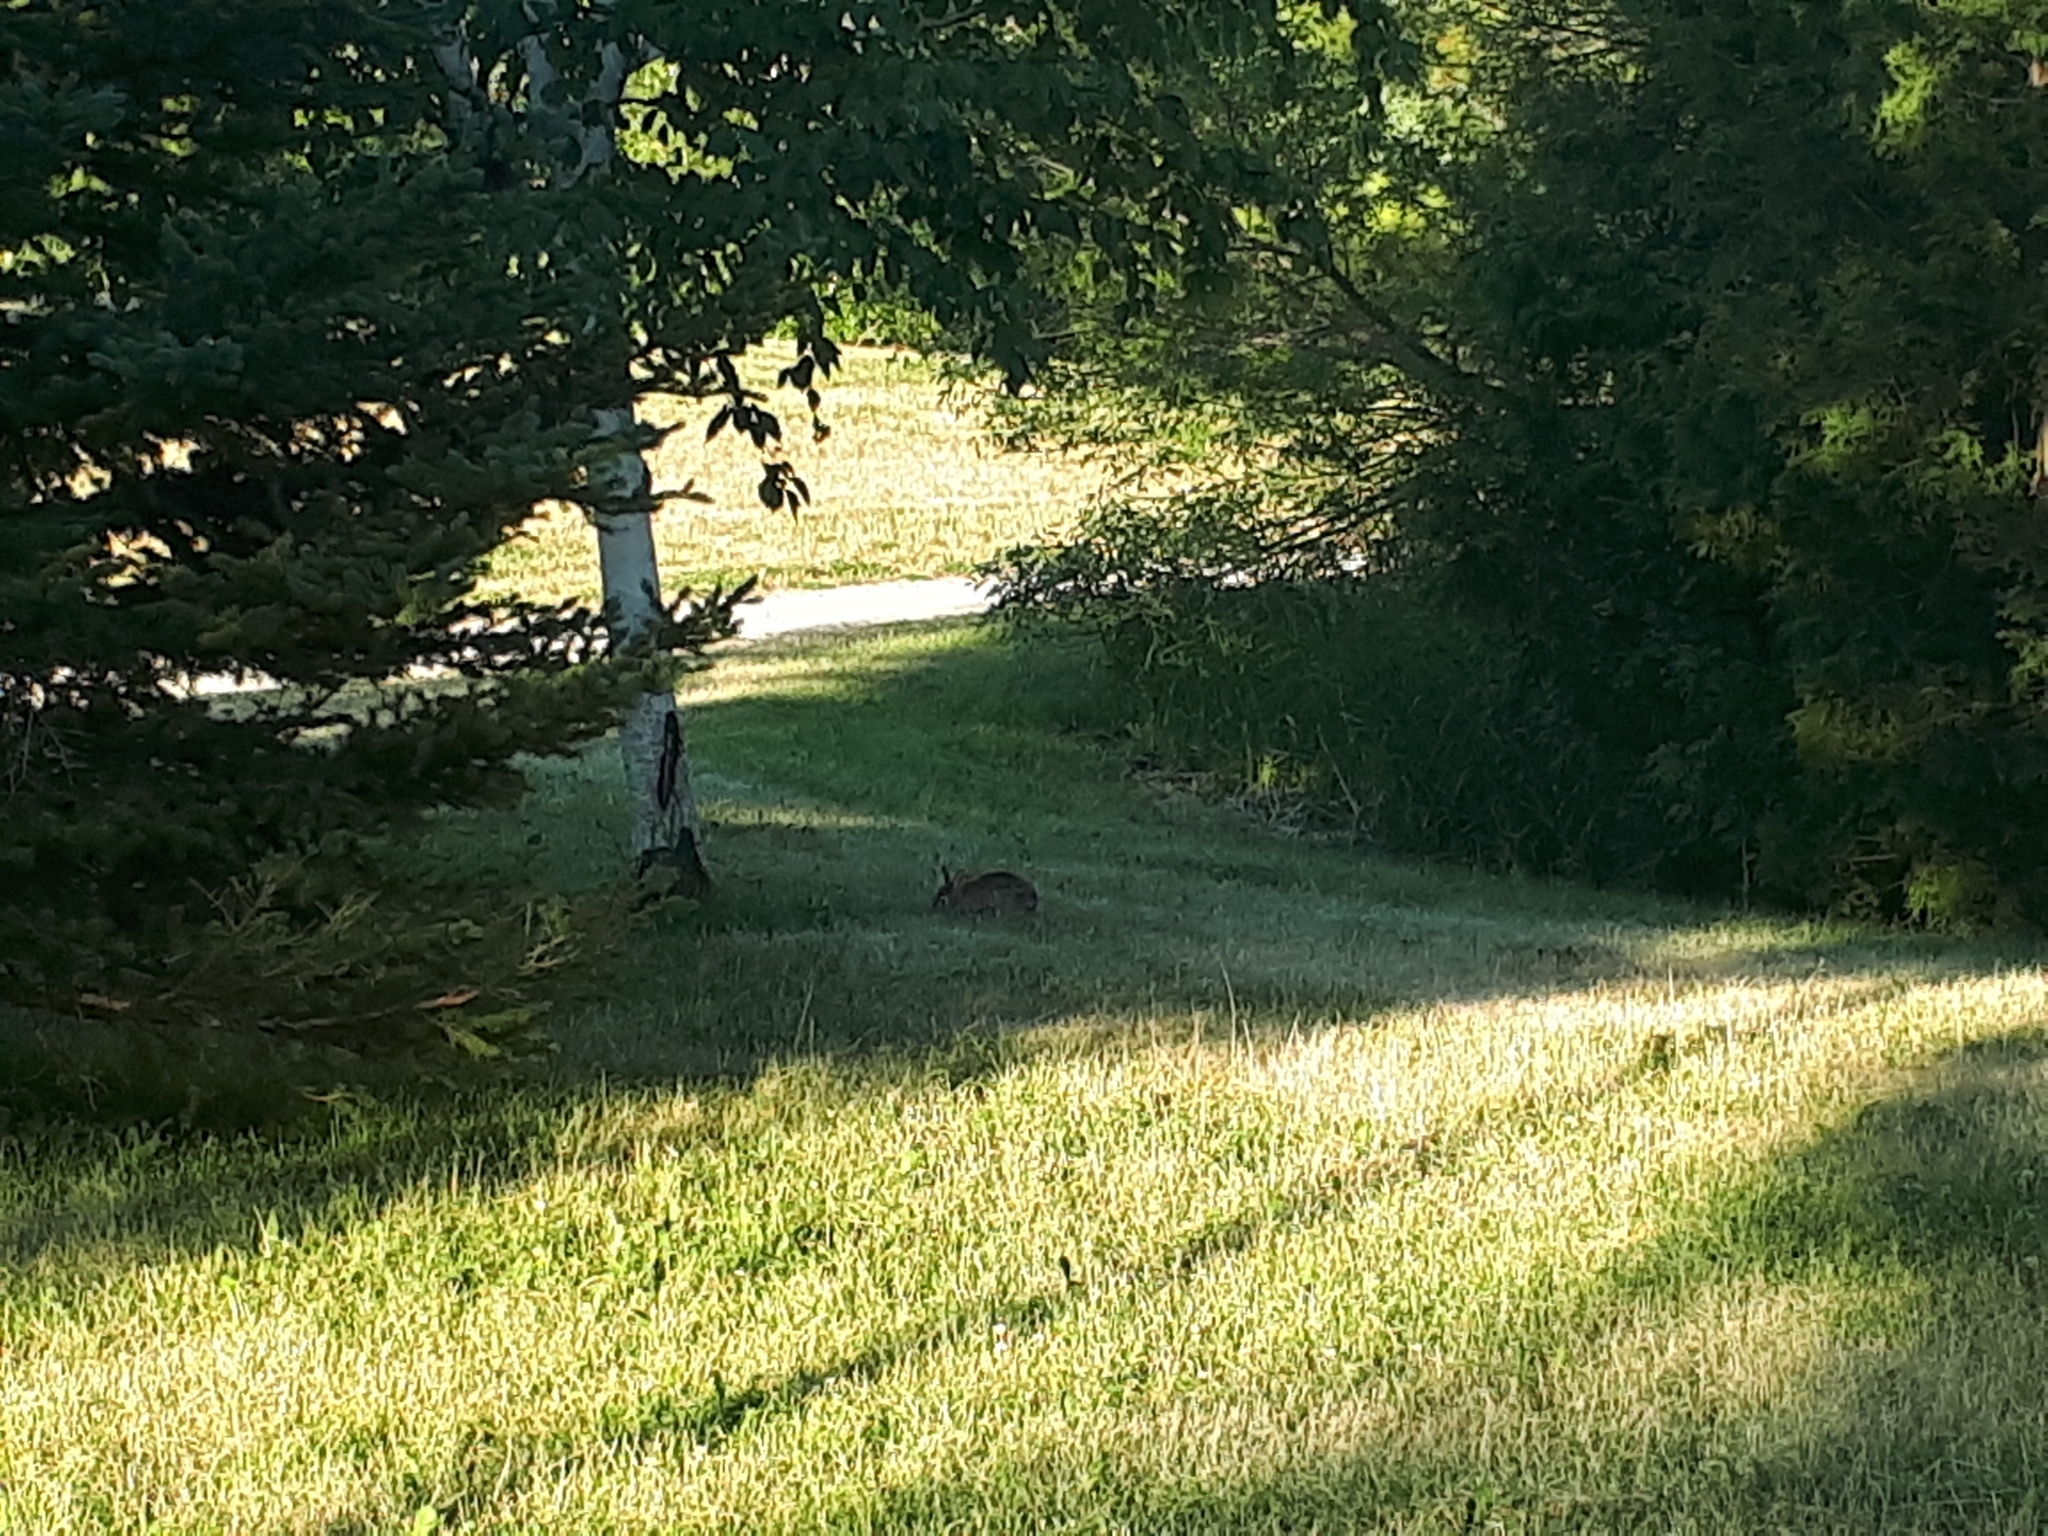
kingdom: Animalia
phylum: Chordata
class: Mammalia
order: Lagomorpha
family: Leporidae
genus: Sylvilagus
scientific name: Sylvilagus floridanus
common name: Eastern cottontail
